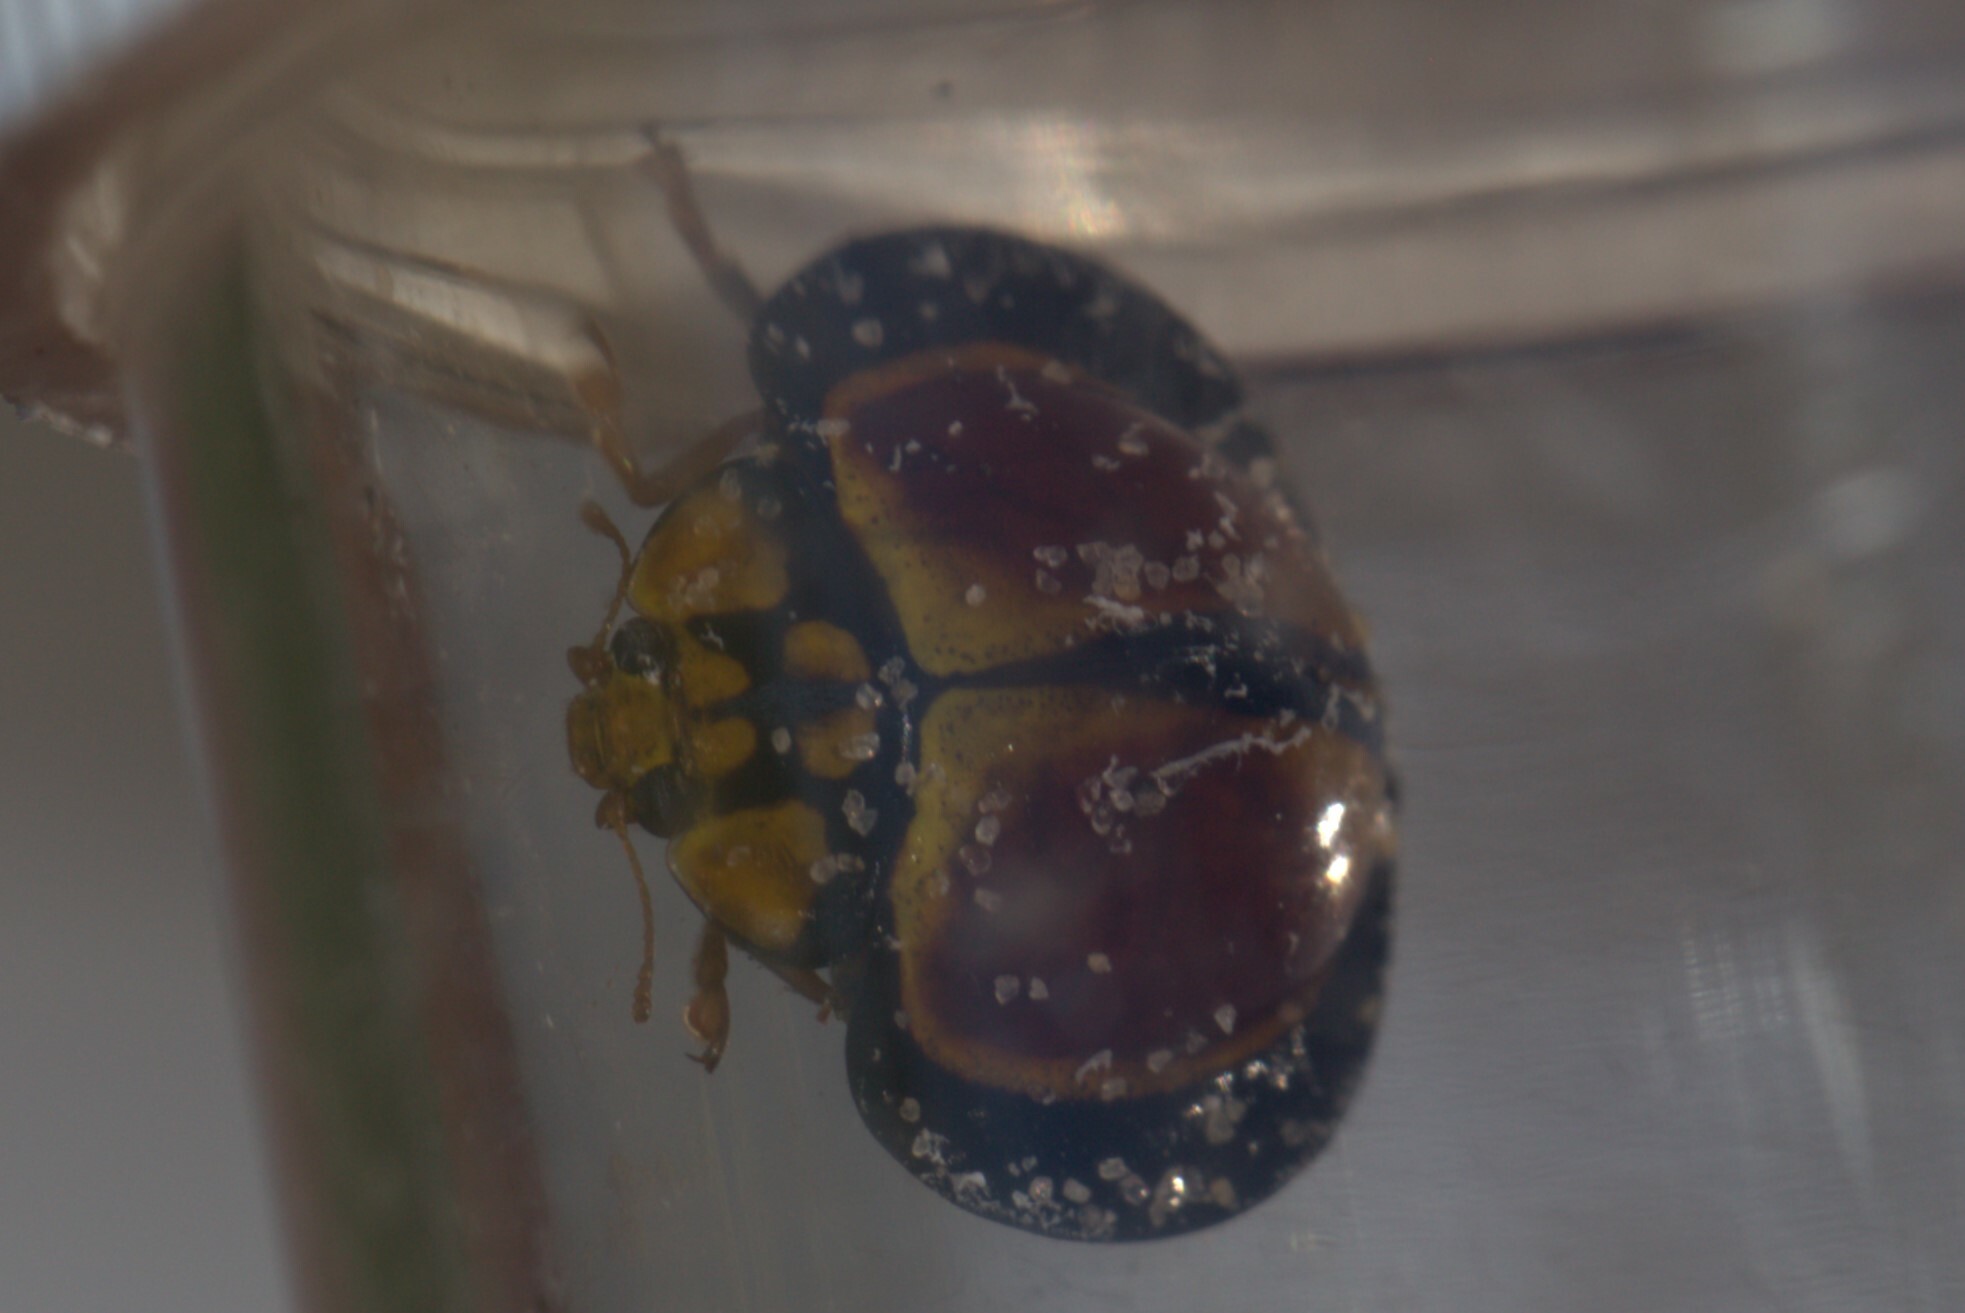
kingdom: Animalia
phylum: Arthropoda
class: Insecta
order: Coleoptera
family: Coccinellidae
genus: Australoneda
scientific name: Australoneda
